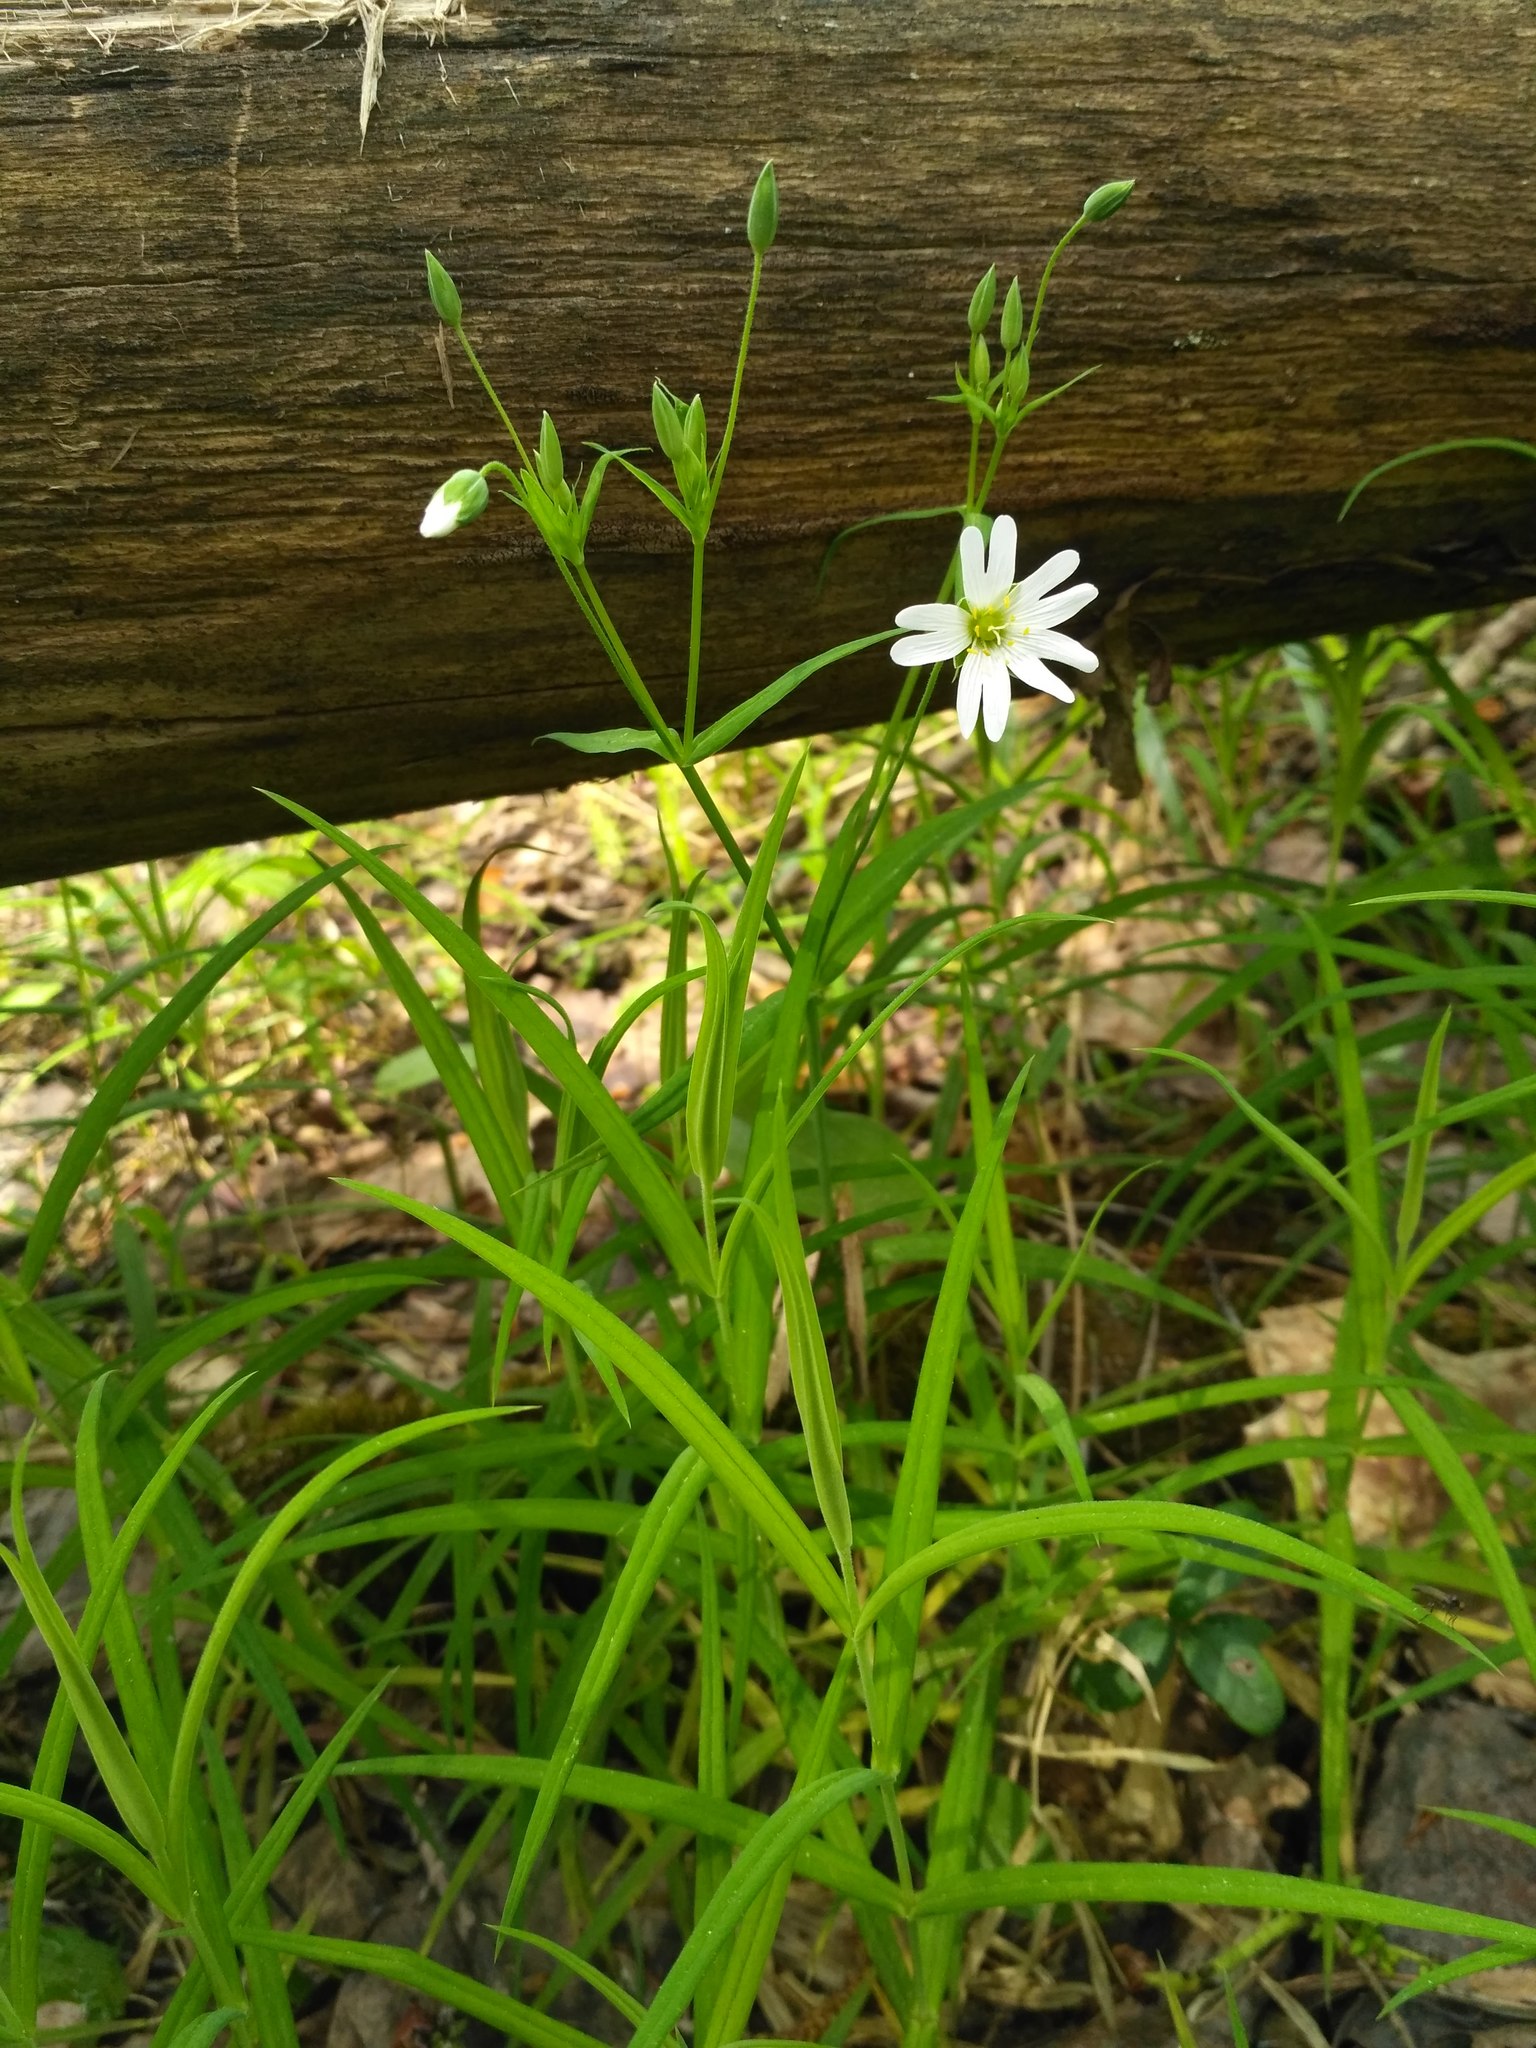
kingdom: Plantae
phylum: Tracheophyta
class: Magnoliopsida
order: Caryophyllales
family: Caryophyllaceae
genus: Rabelera
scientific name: Rabelera holostea
